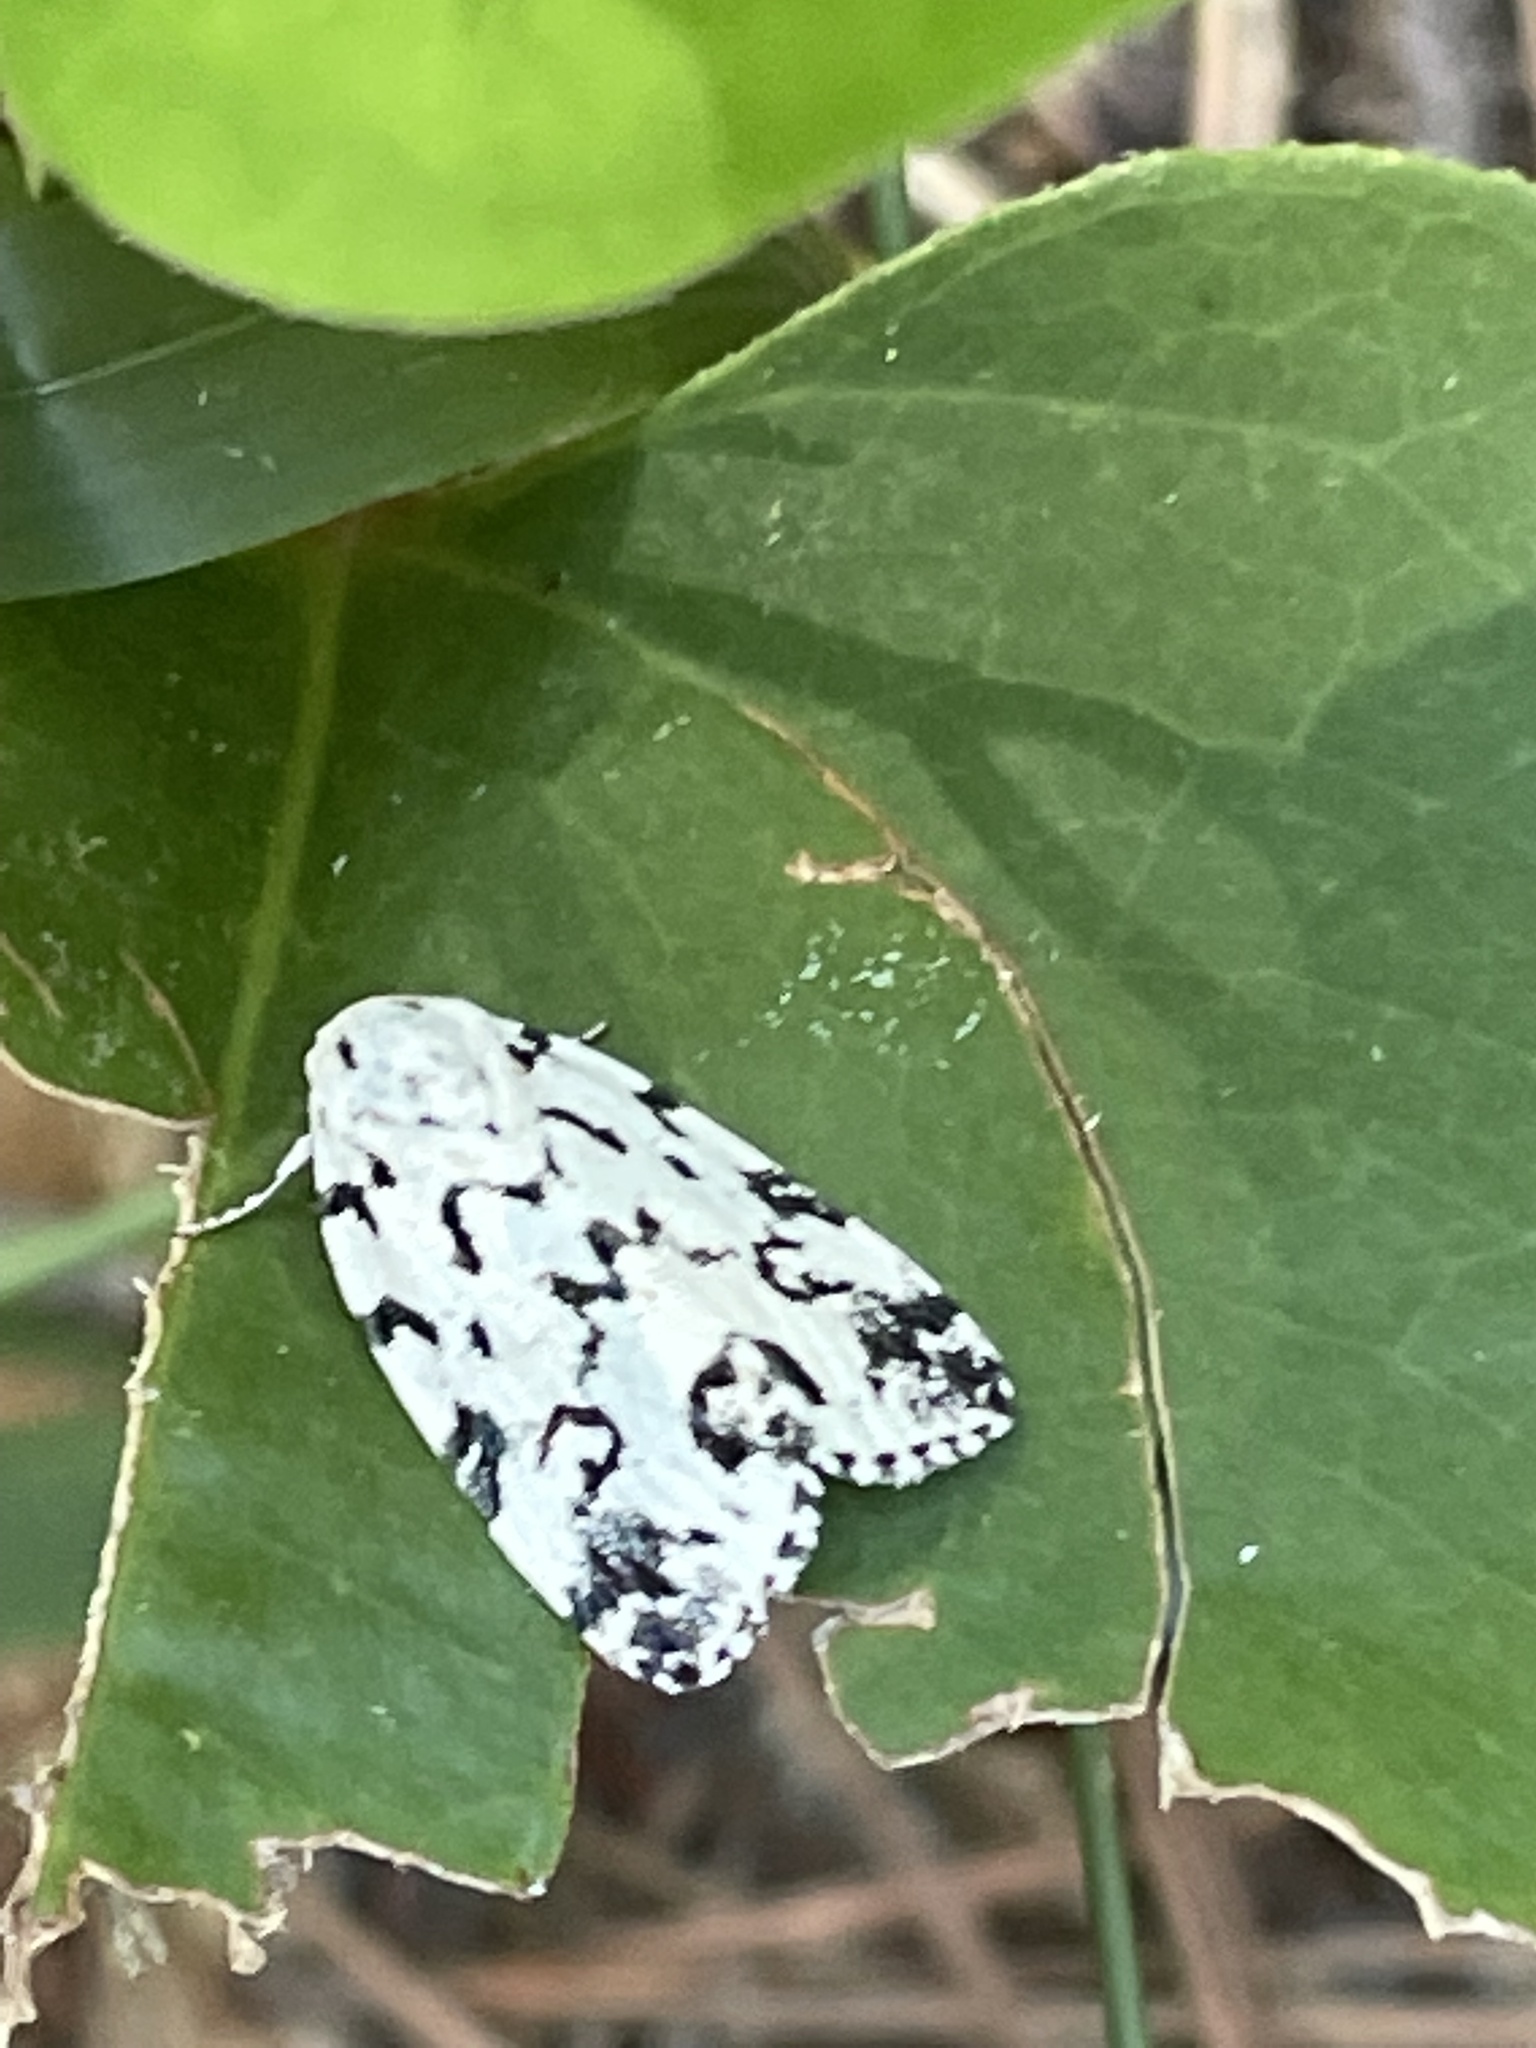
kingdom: Animalia
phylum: Arthropoda
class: Insecta
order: Lepidoptera
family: Noctuidae
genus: Polygrammate
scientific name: Polygrammate hebraeicum
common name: Hebrew moth
